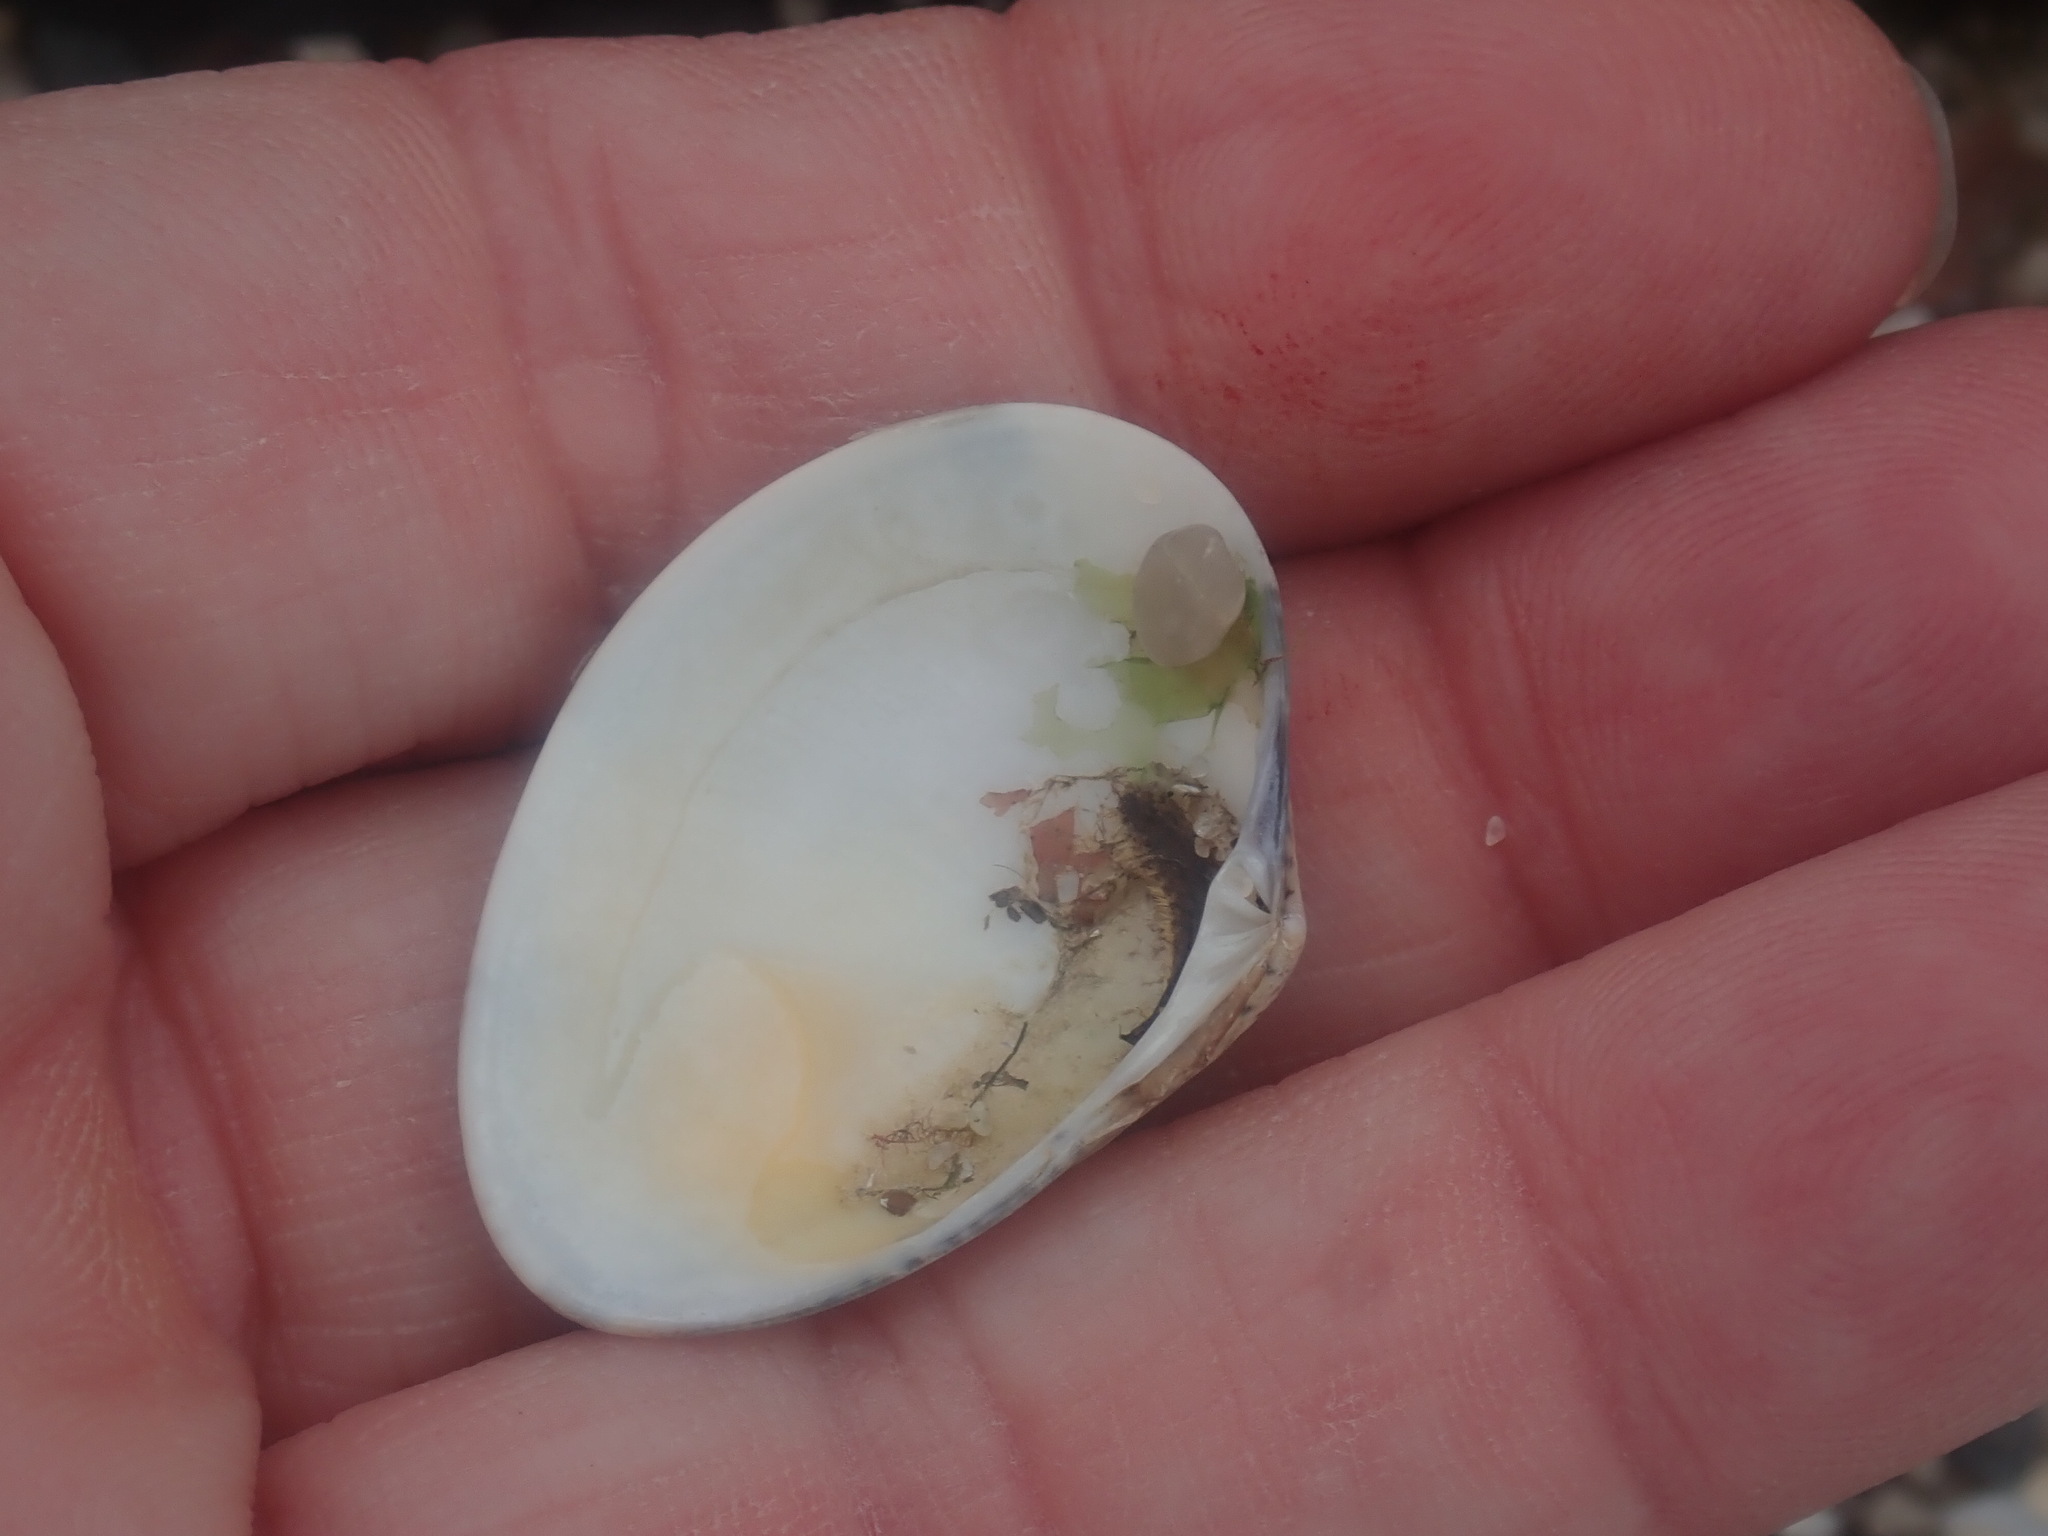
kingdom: Animalia
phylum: Mollusca
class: Bivalvia
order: Venerida
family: Veneridae
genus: Eumarcia
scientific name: Eumarcia fumigata
